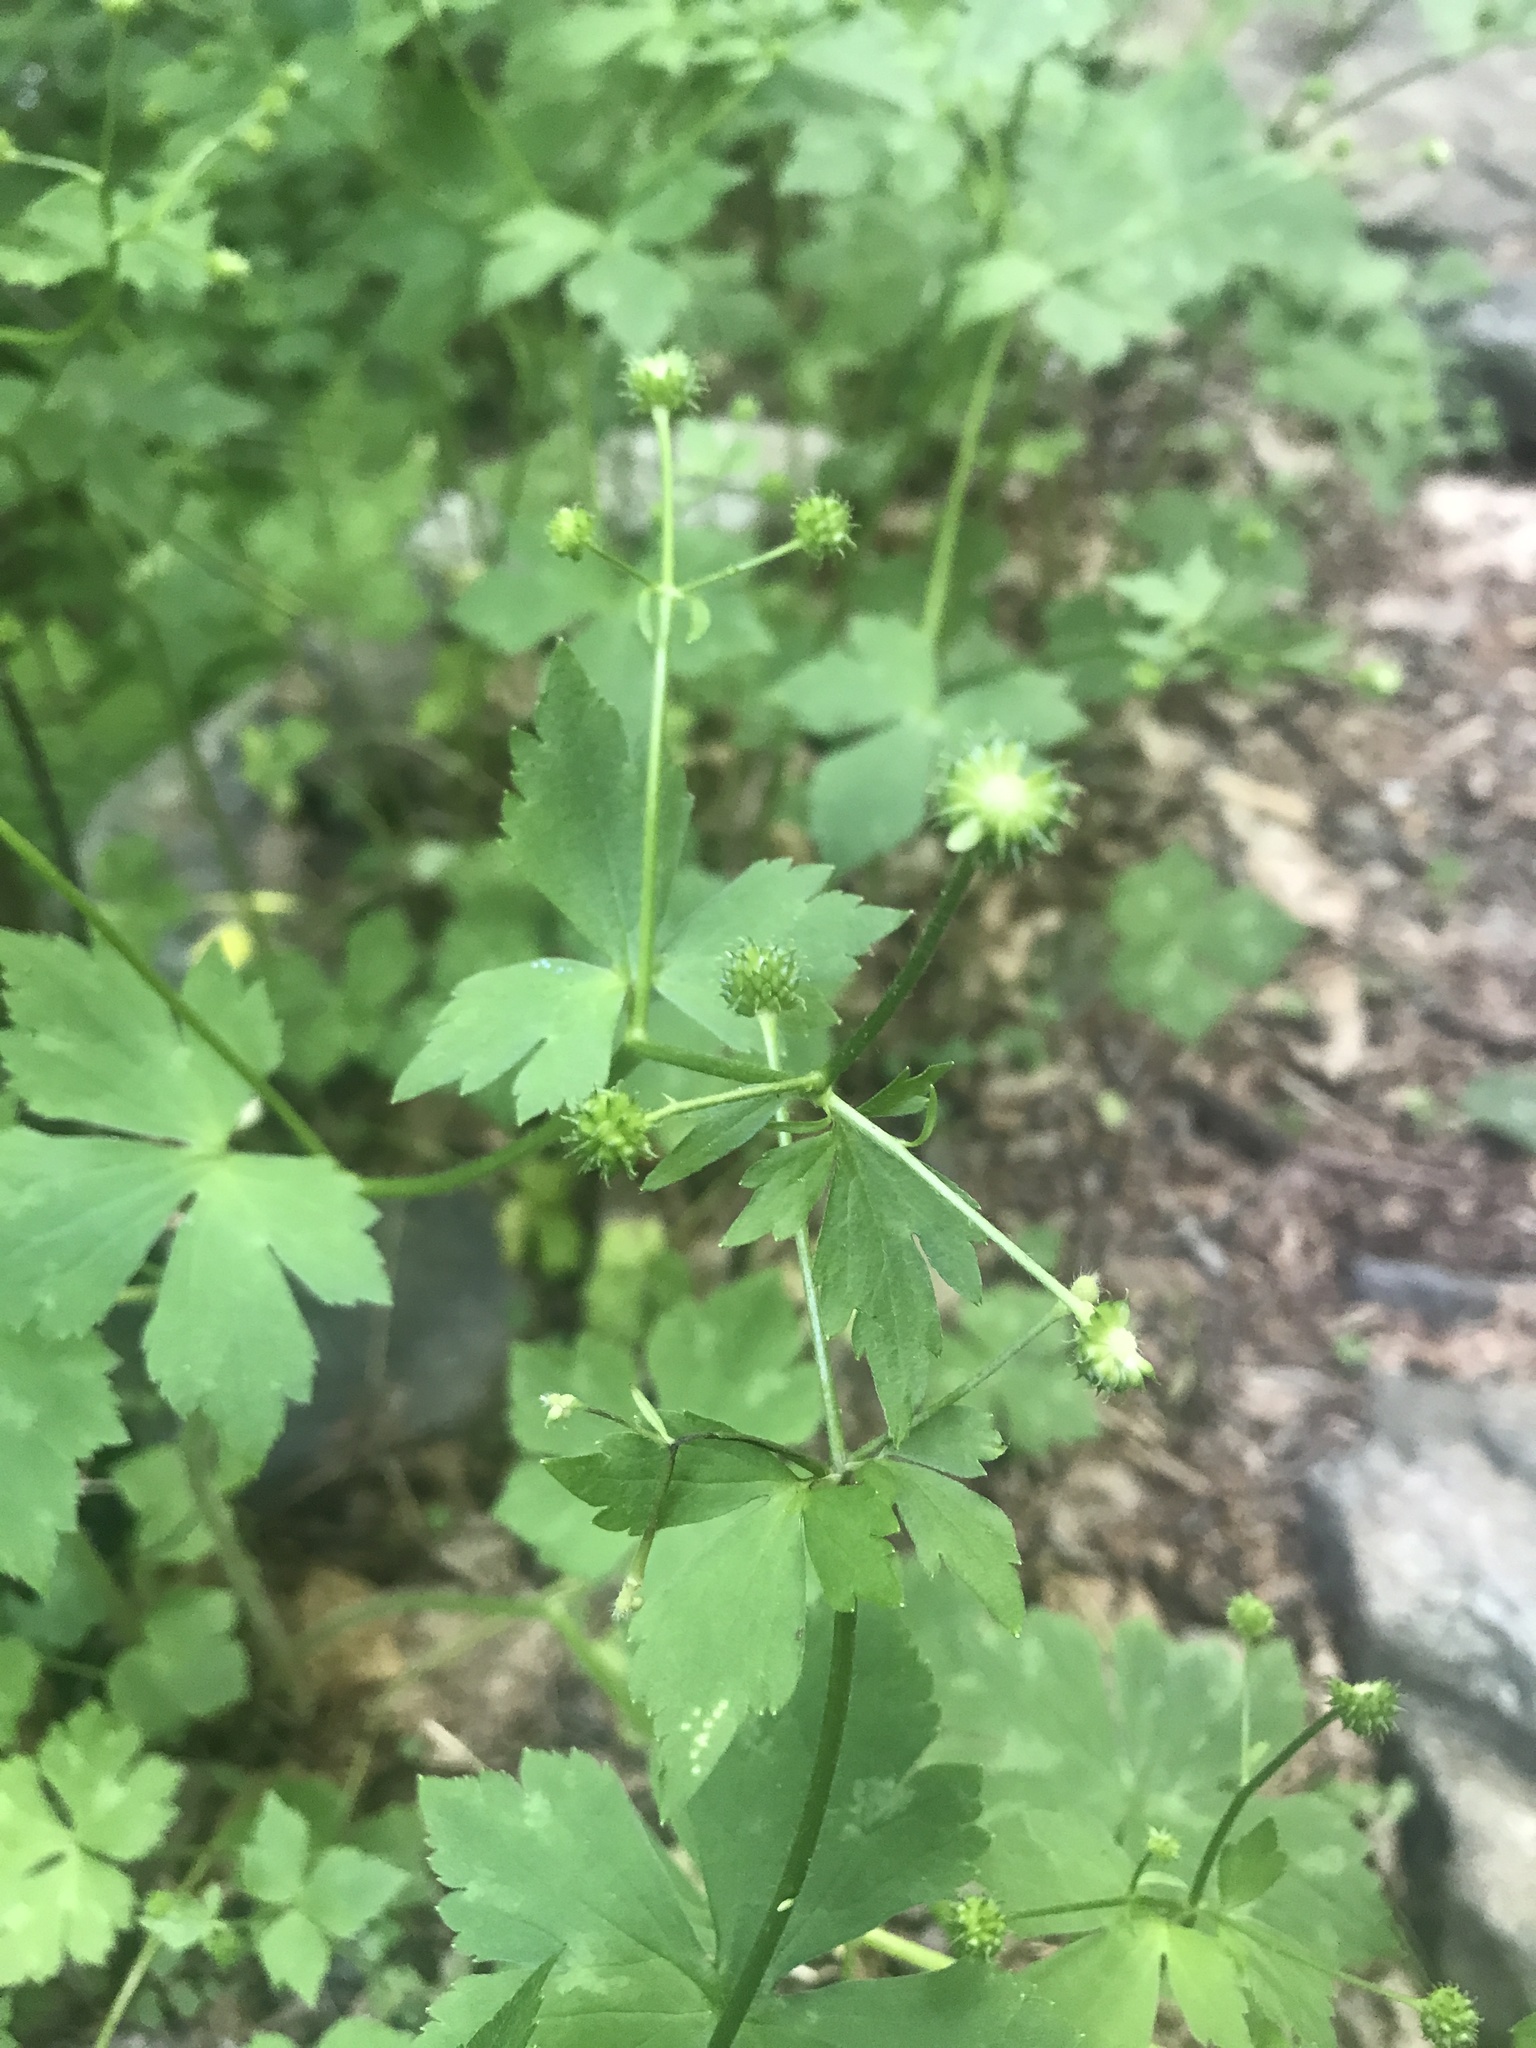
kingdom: Plantae
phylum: Tracheophyta
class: Magnoliopsida
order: Ranunculales
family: Ranunculaceae
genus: Ranunculus
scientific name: Ranunculus recurvatus
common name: Blisterwort
